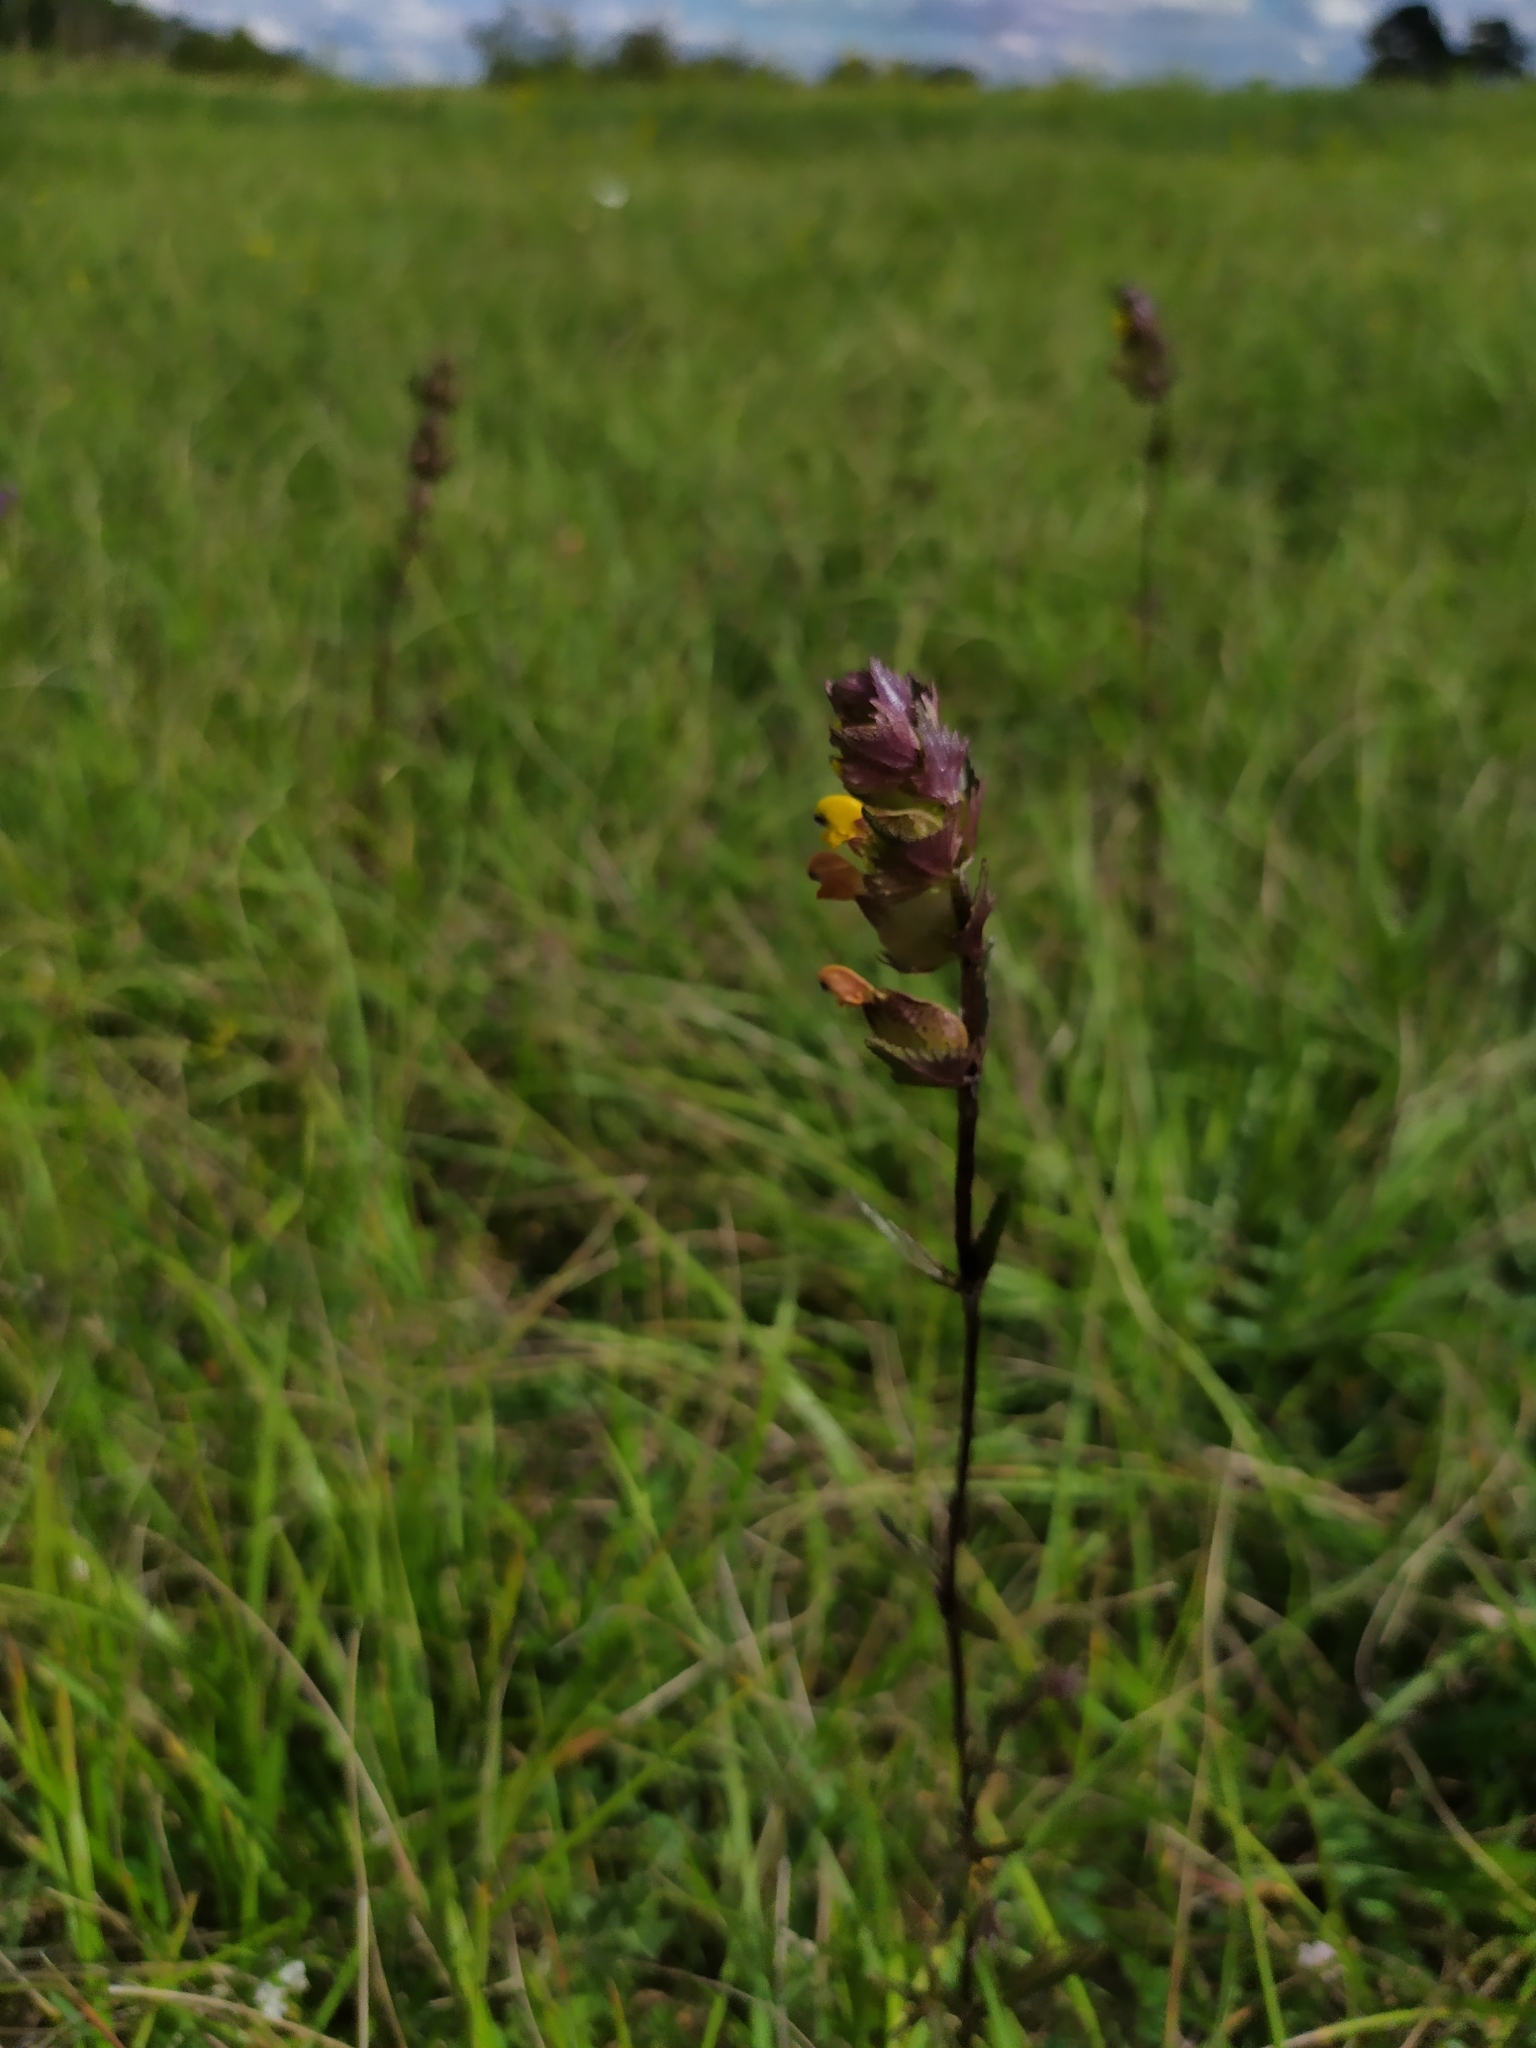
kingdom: Plantae
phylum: Tracheophyta
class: Magnoliopsida
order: Lamiales
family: Orobanchaceae
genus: Rhinanthus
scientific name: Rhinanthus serotinus
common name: Late-flowering yellow rattle
